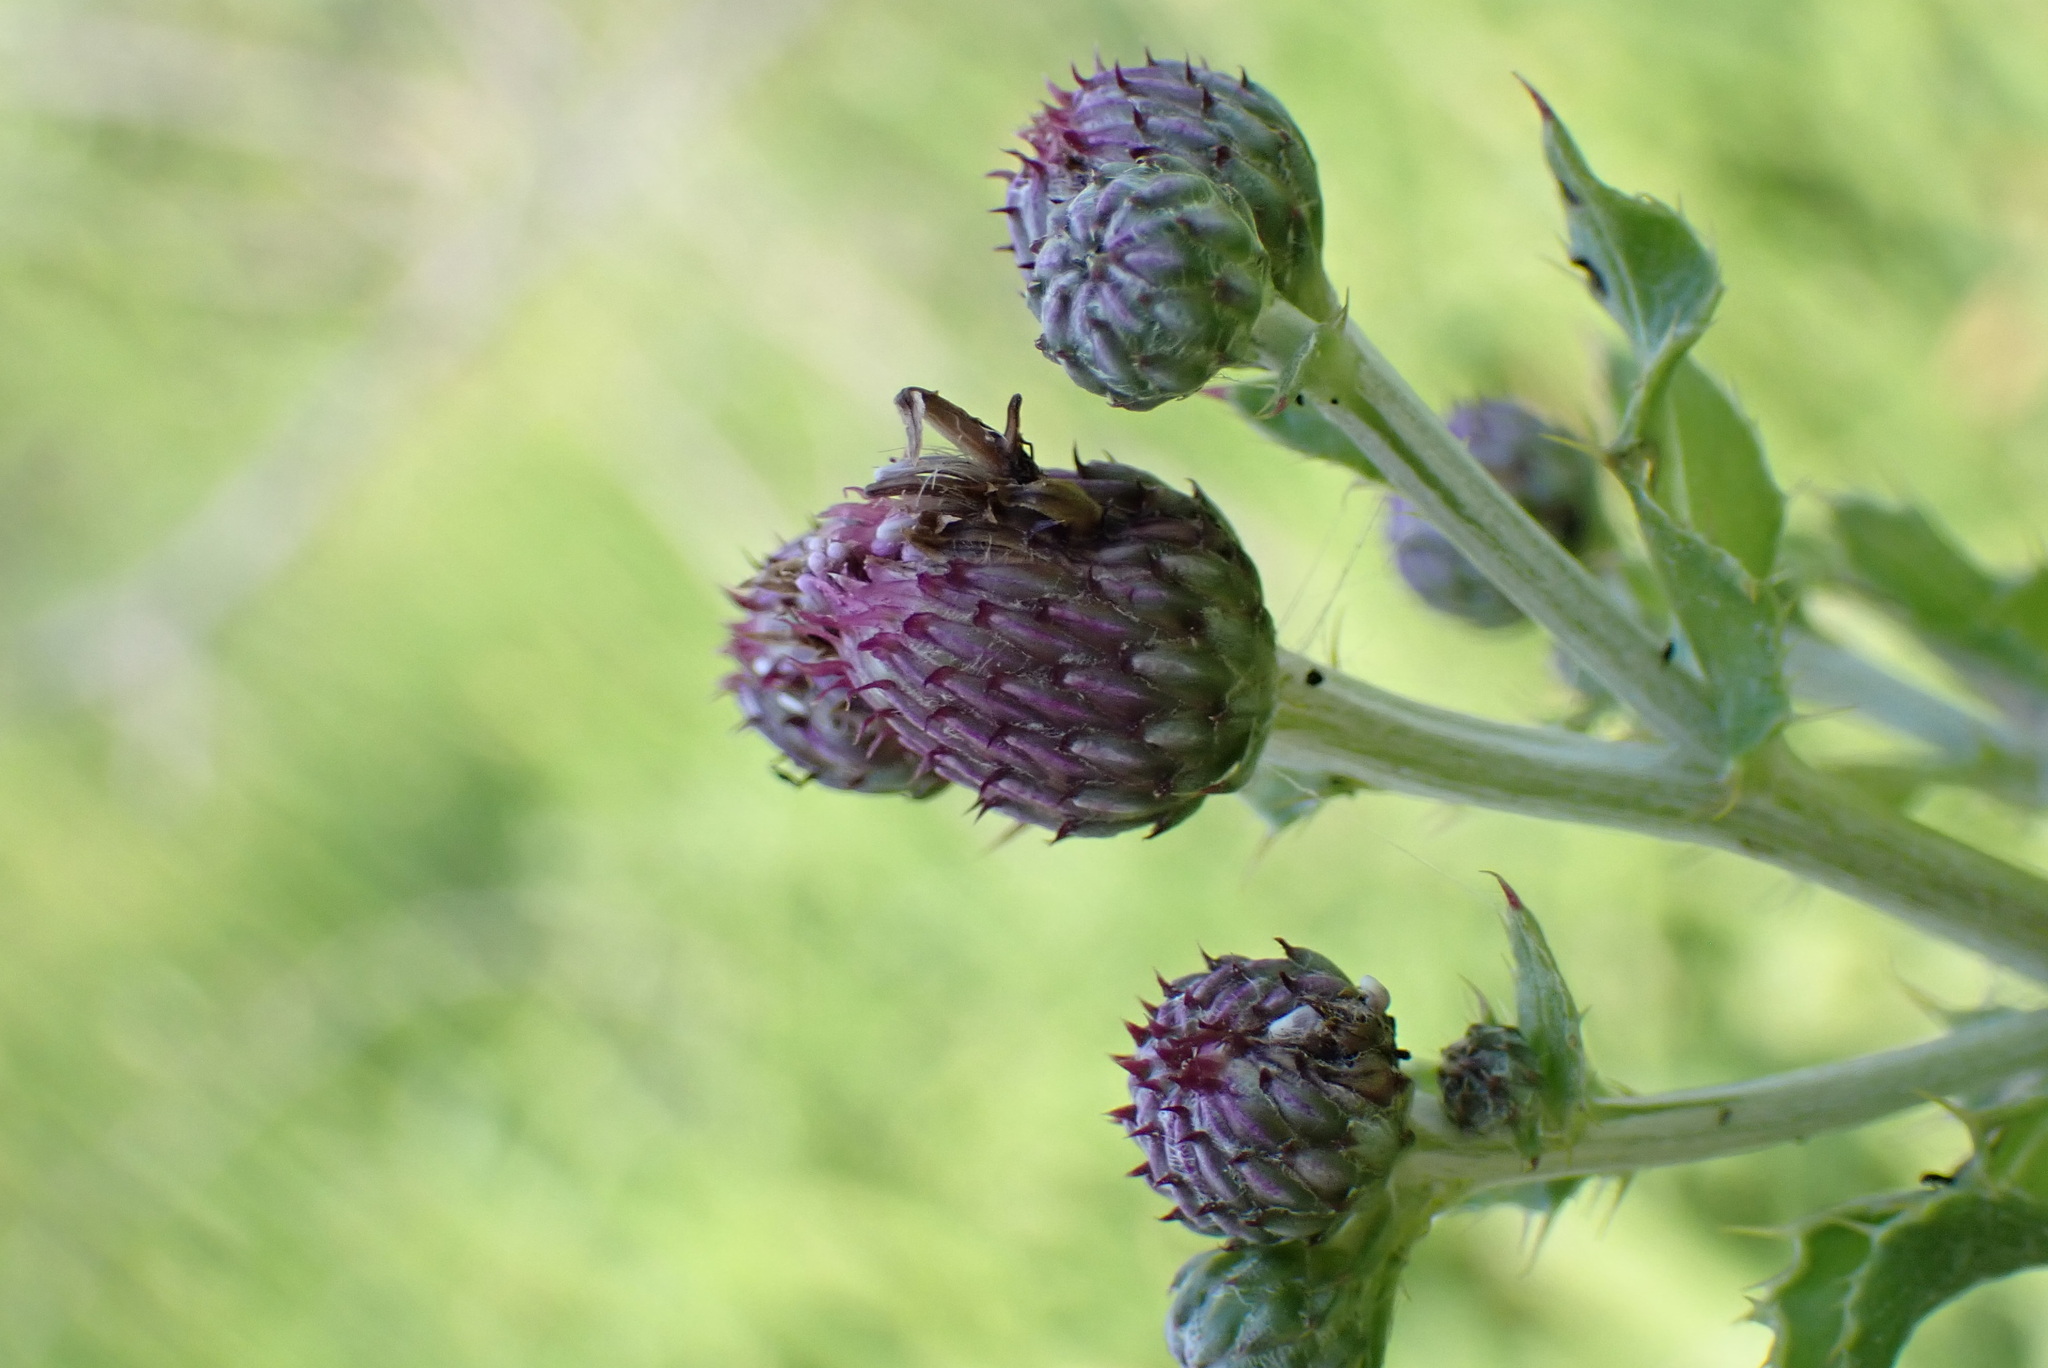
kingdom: Plantae
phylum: Tracheophyta
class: Magnoliopsida
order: Asterales
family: Asteraceae
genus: Cirsium
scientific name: Cirsium arvense
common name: Creeping thistle
